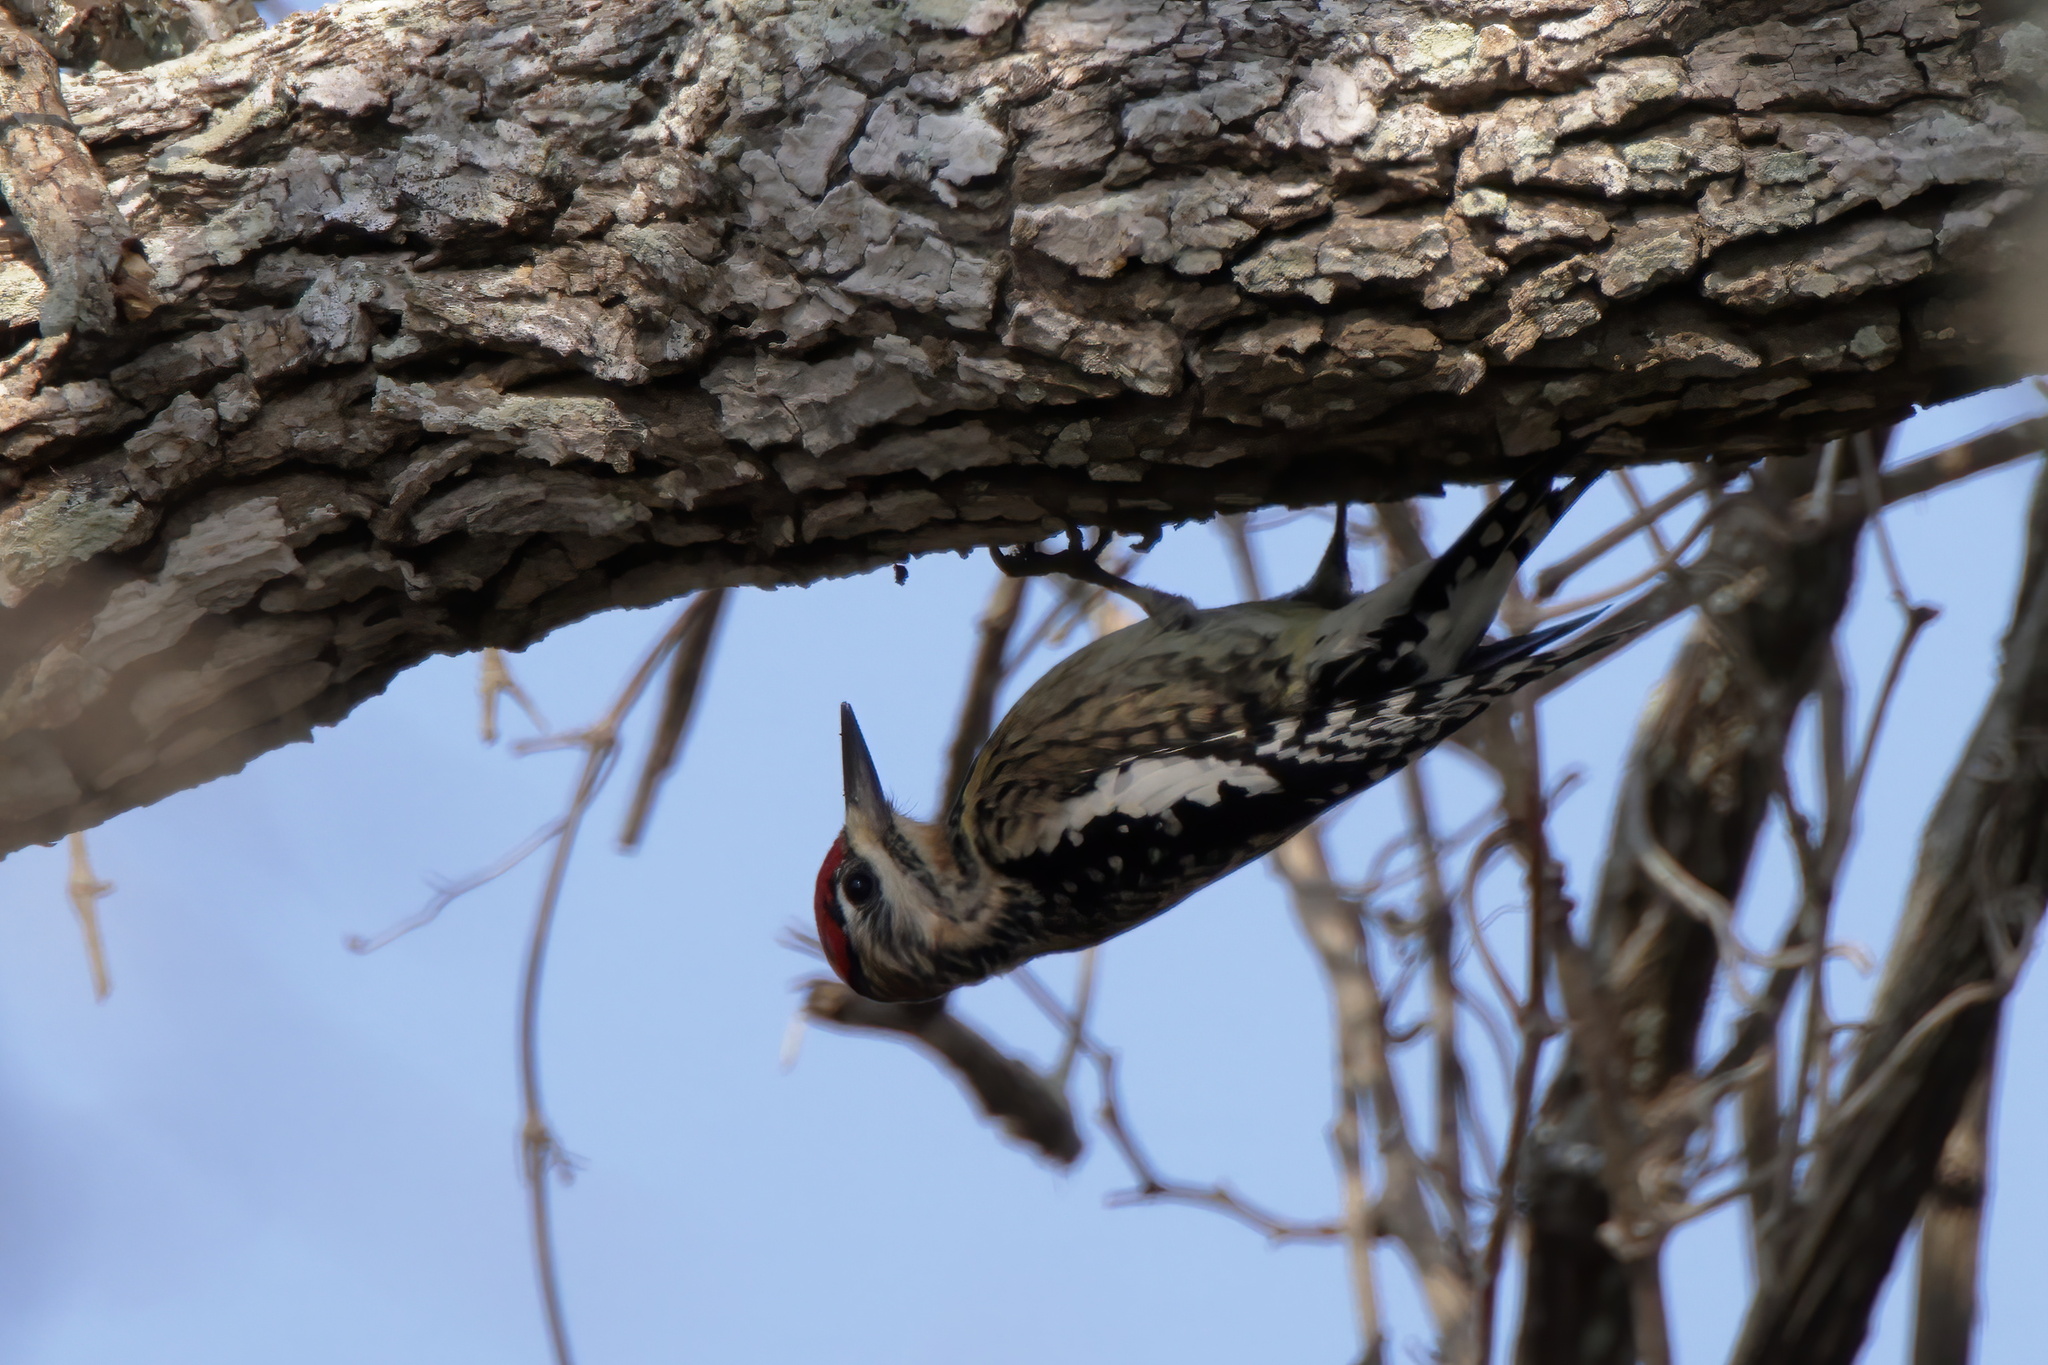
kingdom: Animalia
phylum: Chordata
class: Aves
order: Piciformes
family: Picidae
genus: Sphyrapicus
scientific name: Sphyrapicus varius
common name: Yellow-bellied sapsucker
